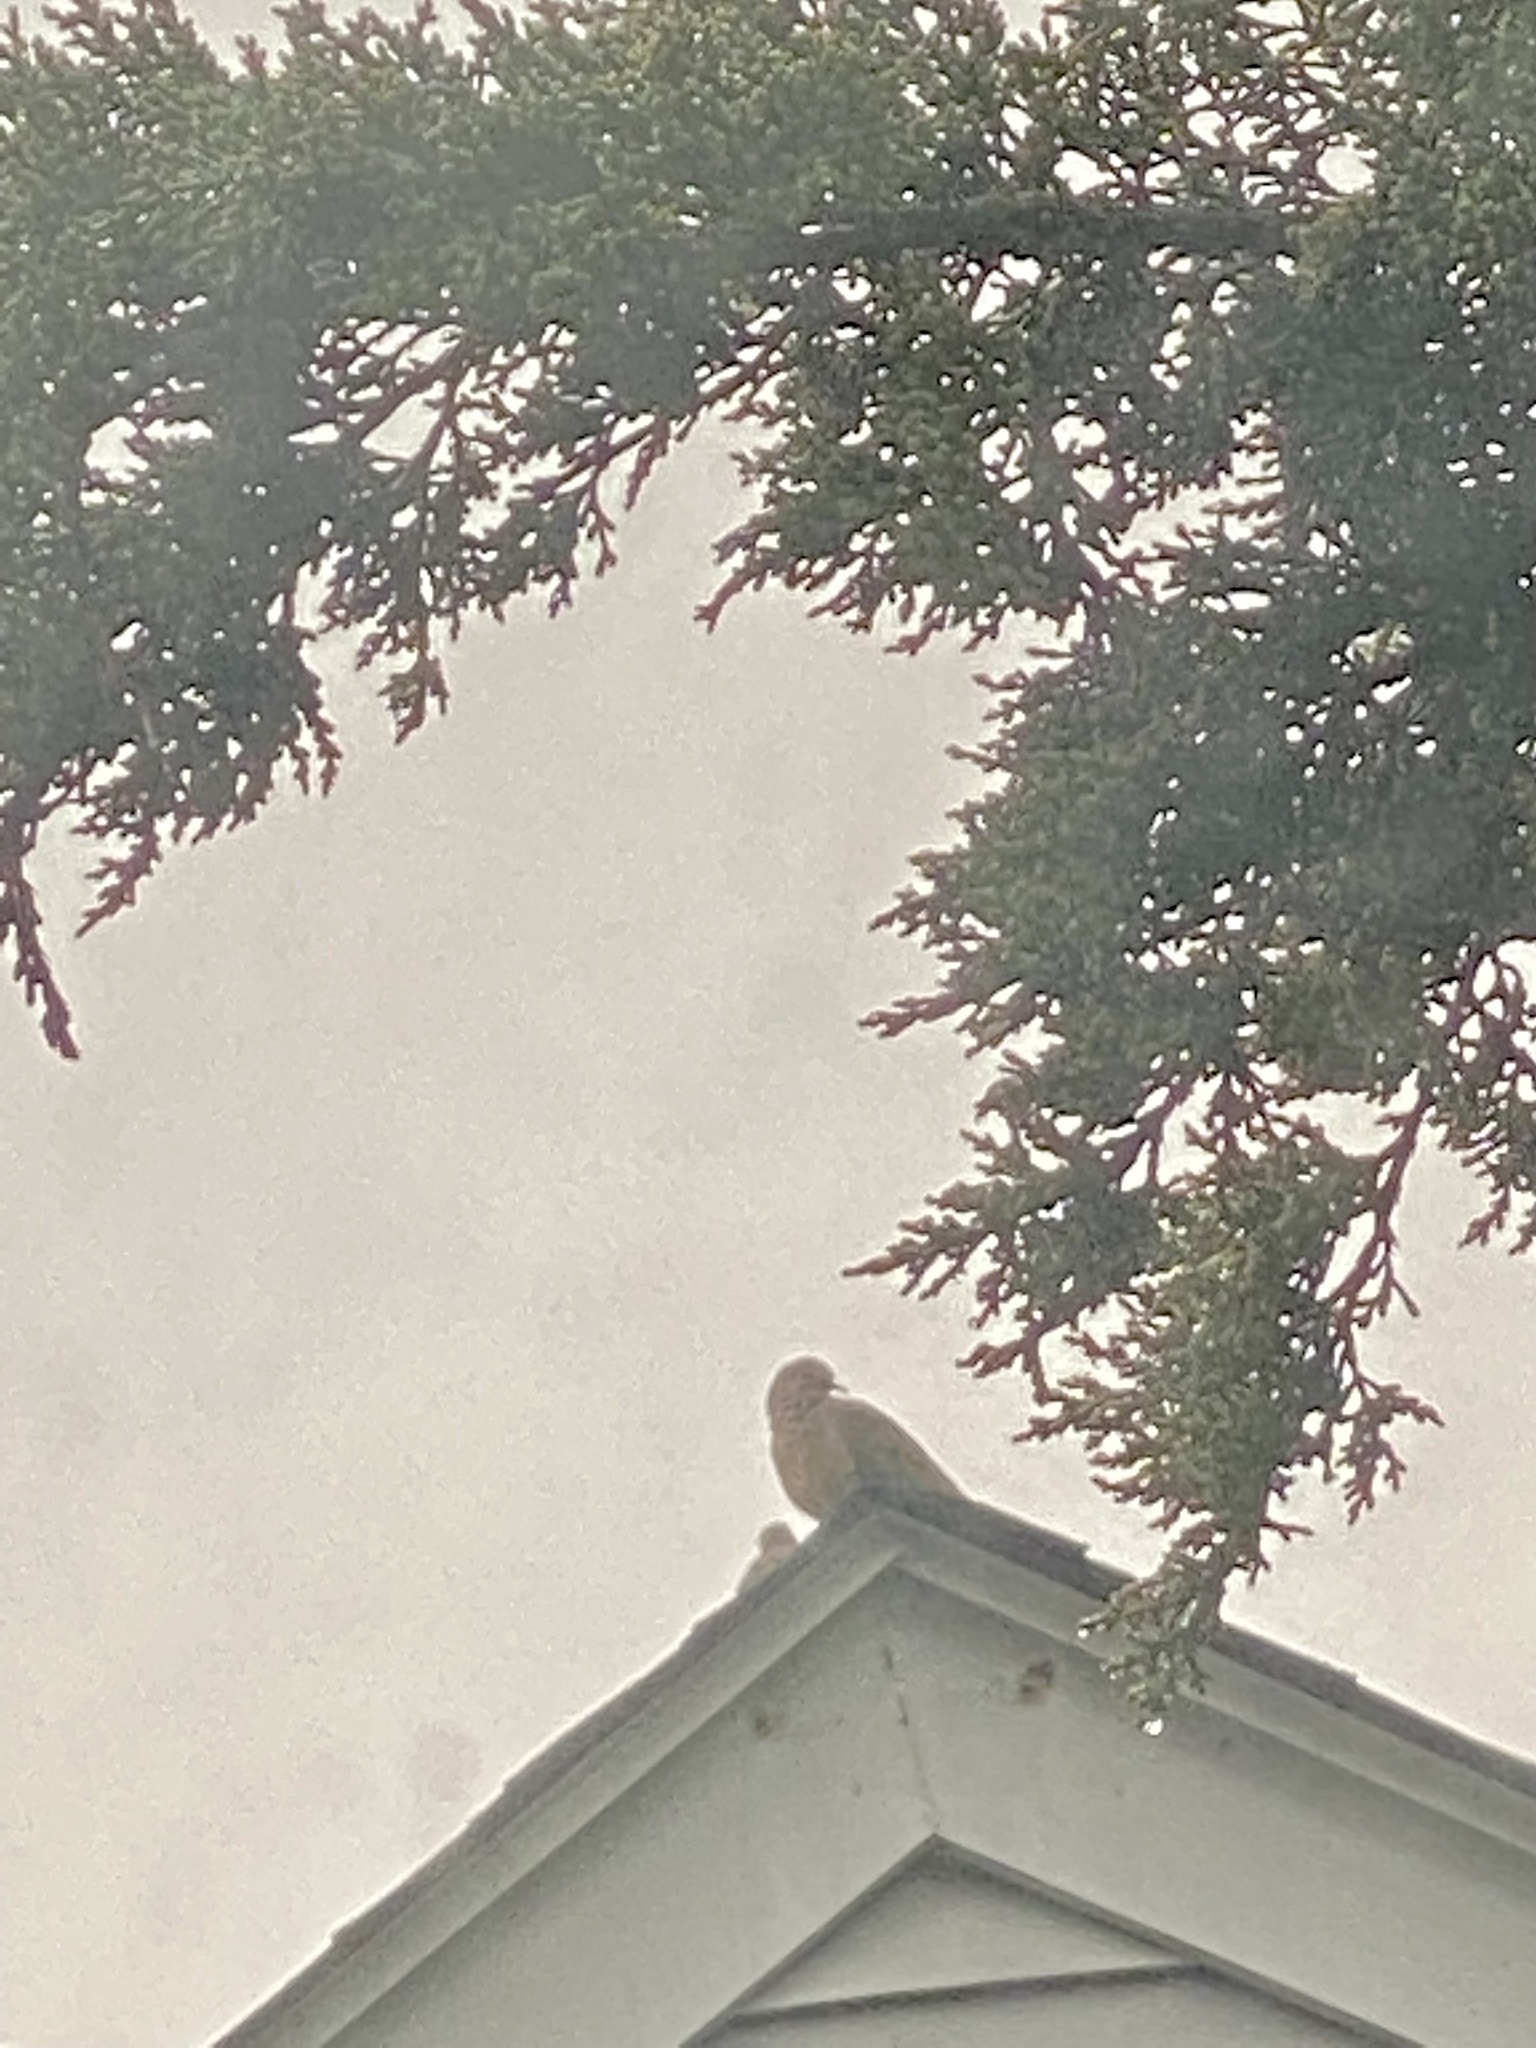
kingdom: Animalia
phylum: Chordata
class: Aves
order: Columbiformes
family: Columbidae
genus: Zenaida
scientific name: Zenaida macroura
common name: Mourning dove
